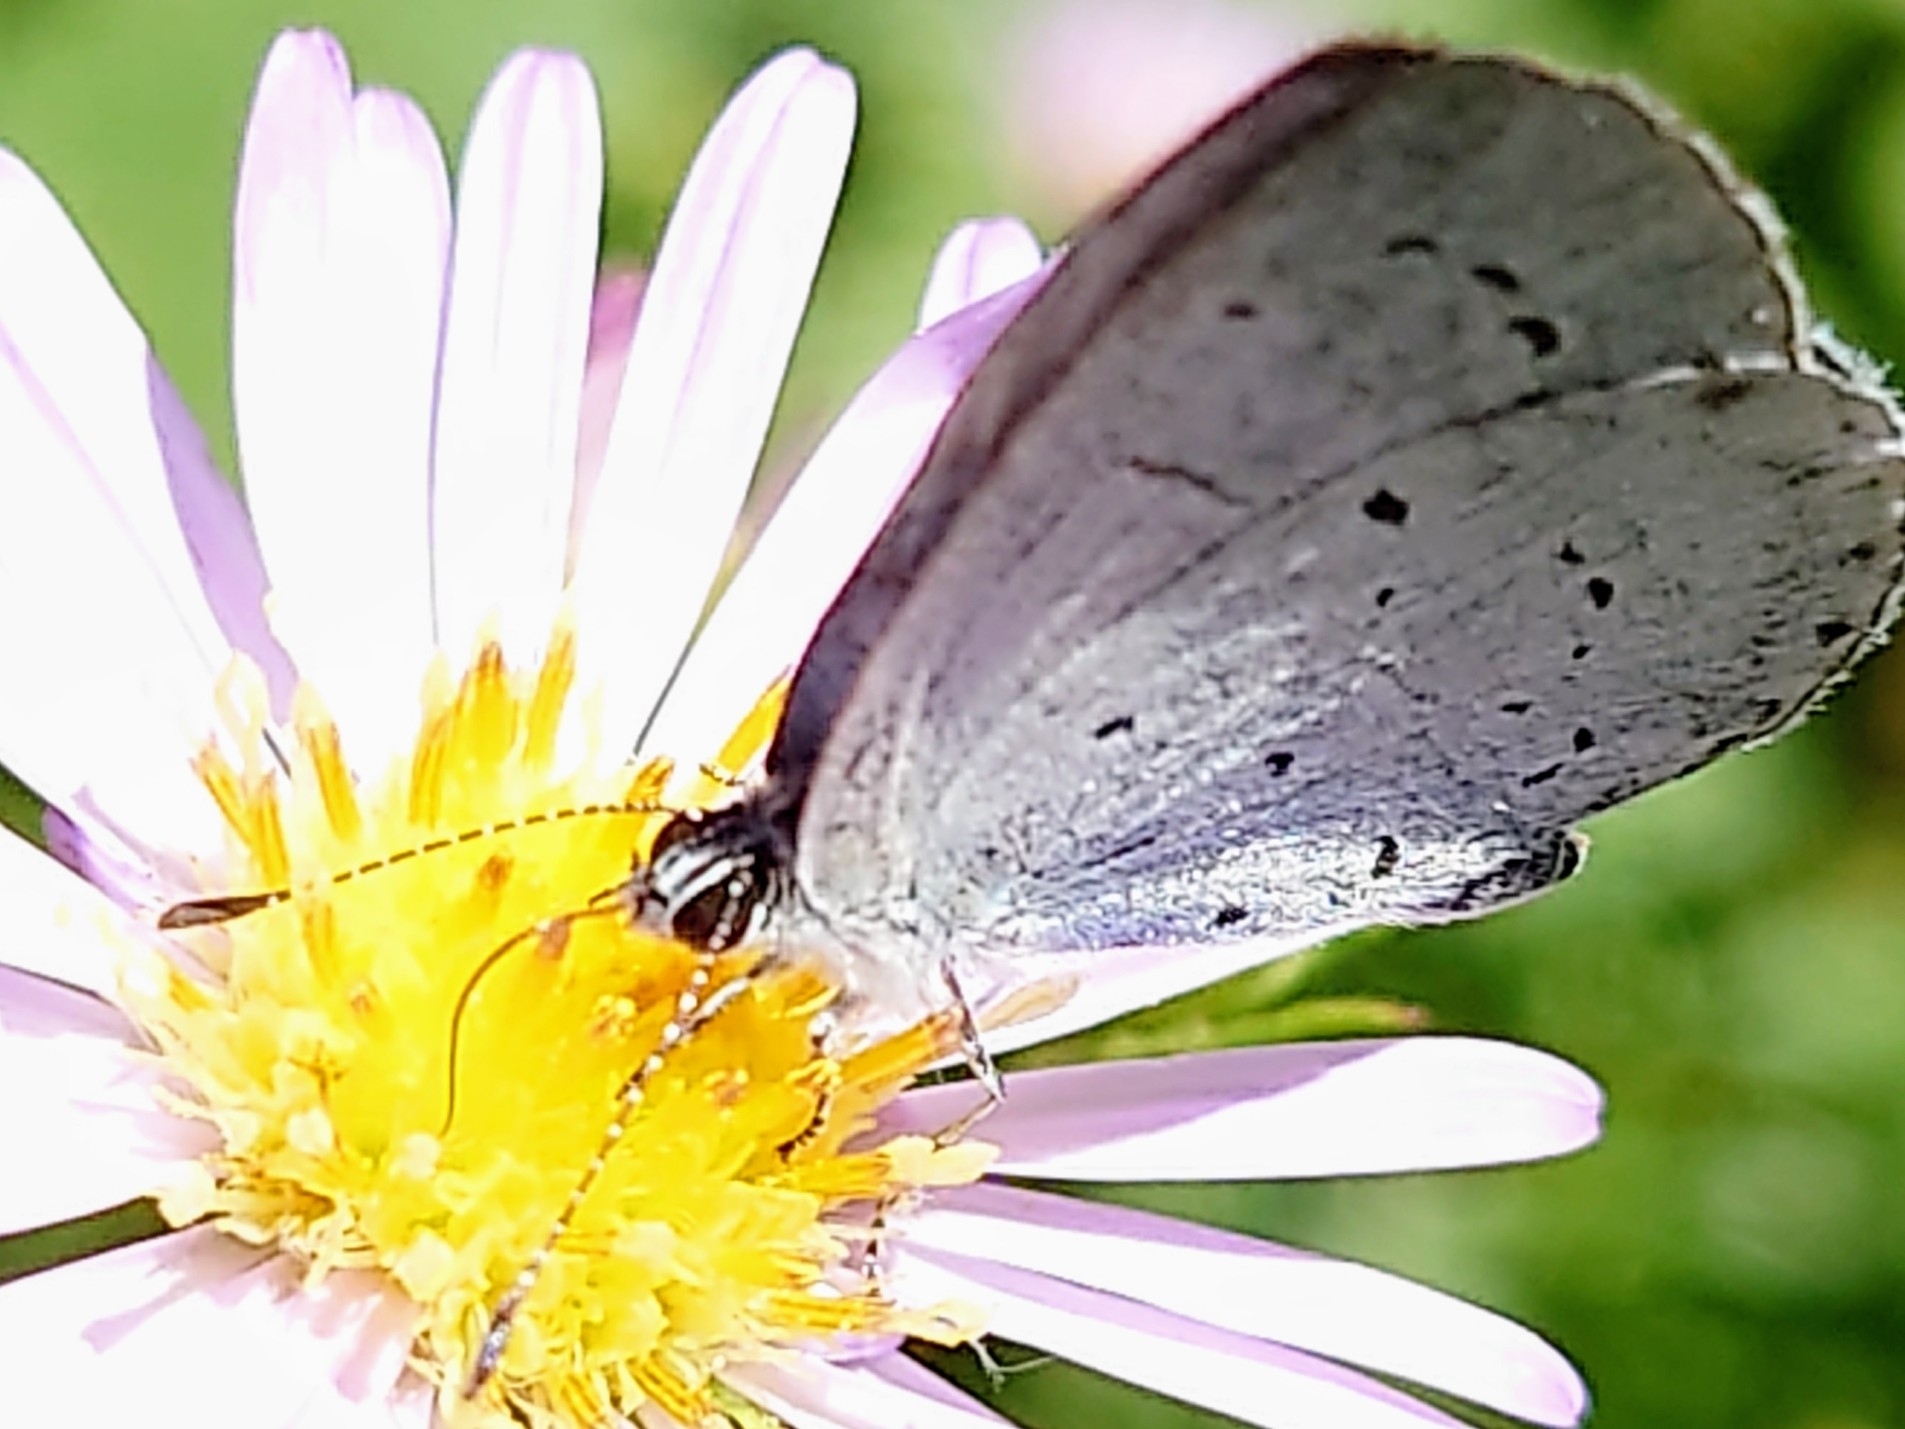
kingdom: Animalia
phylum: Arthropoda
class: Insecta
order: Lepidoptera
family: Lycaenidae
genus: Celastrina
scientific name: Celastrina argiolus
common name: Holly blue
